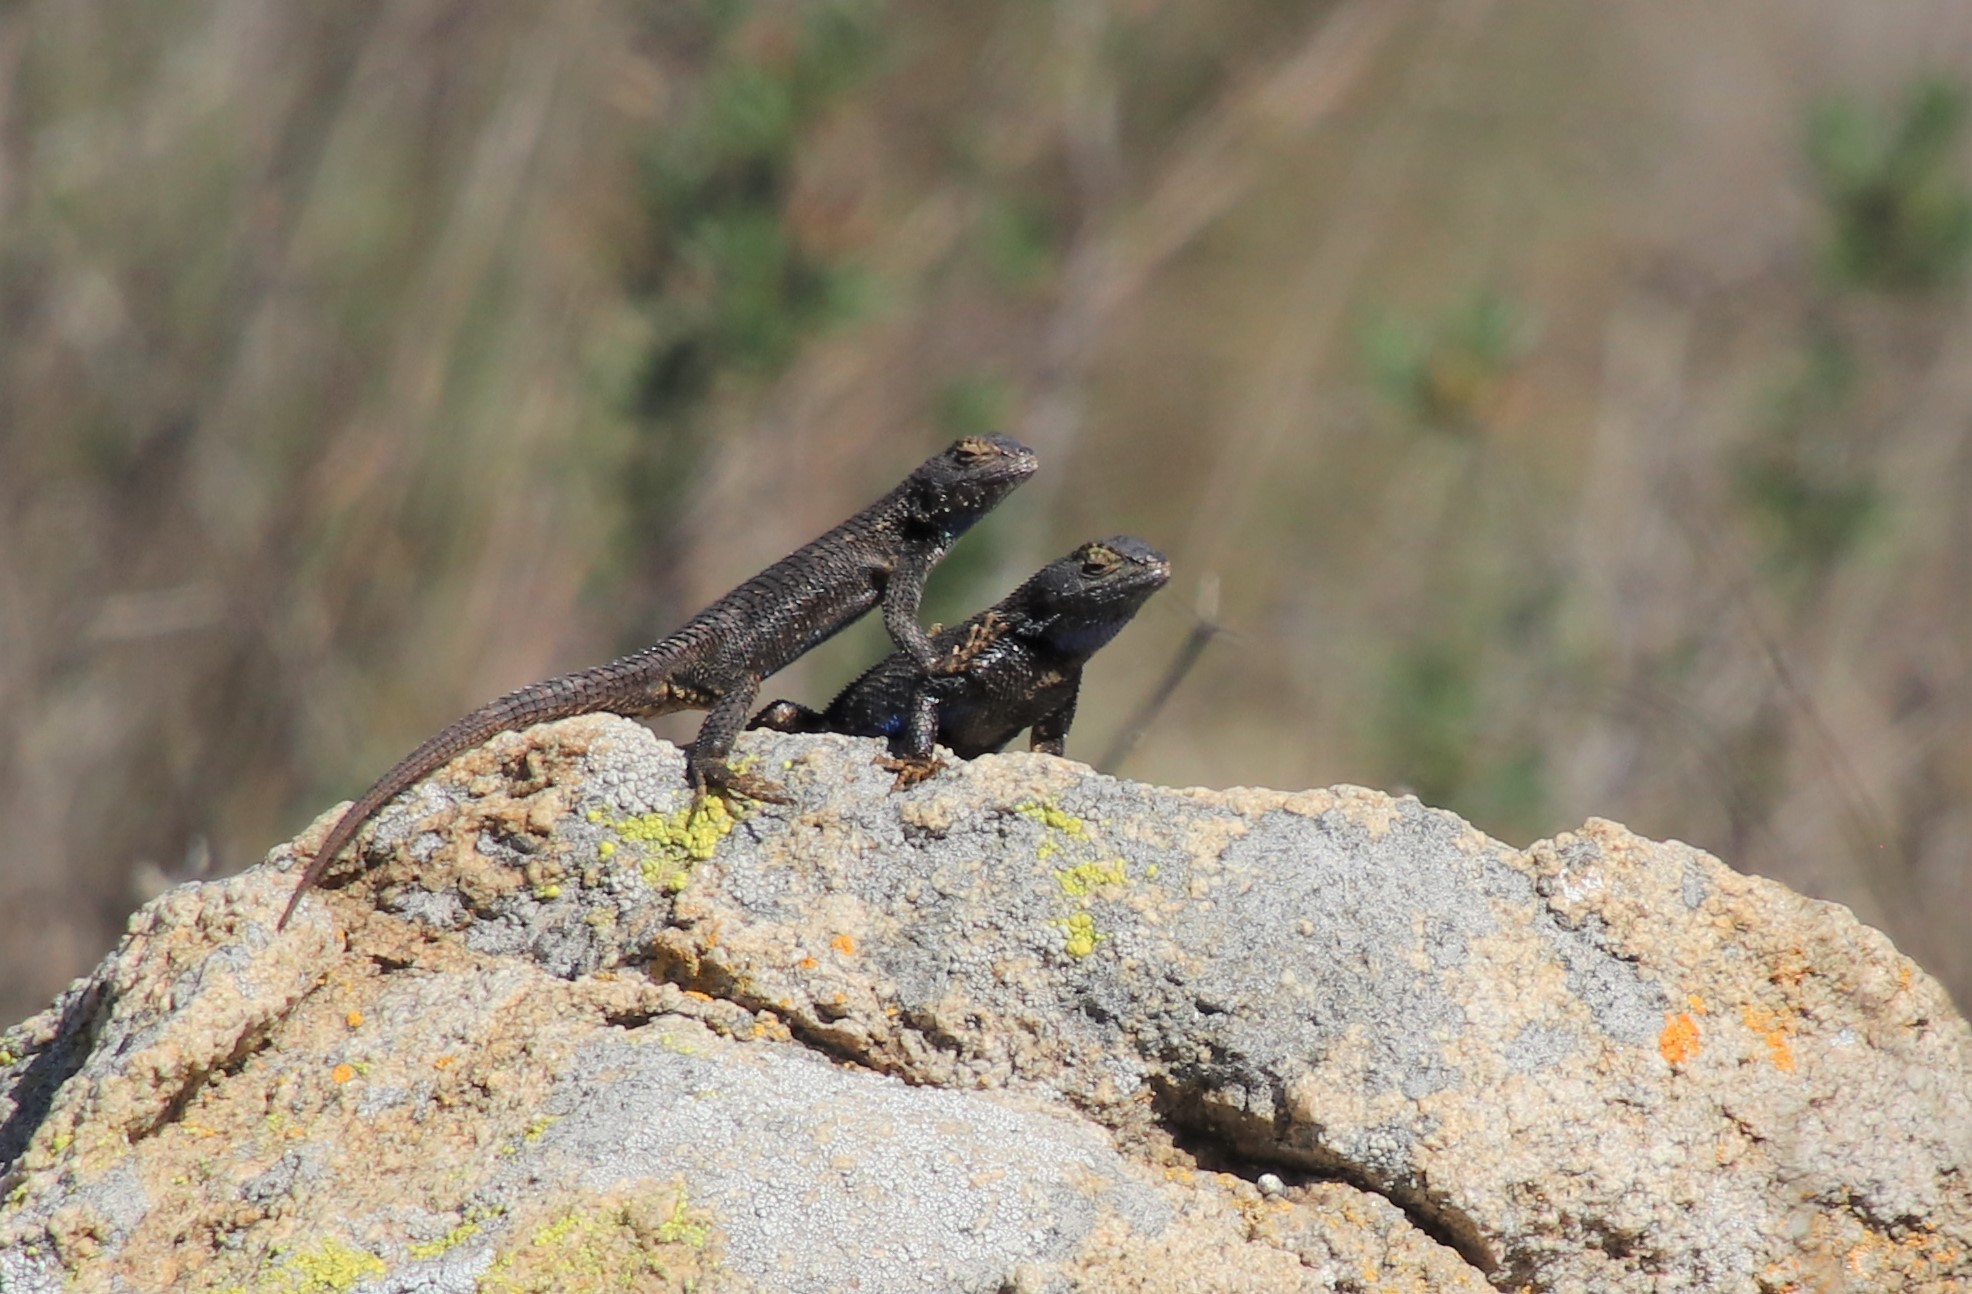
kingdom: Animalia
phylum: Chordata
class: Squamata
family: Phrynosomatidae
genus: Sceloporus
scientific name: Sceloporus occidentalis
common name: Western fence lizard
